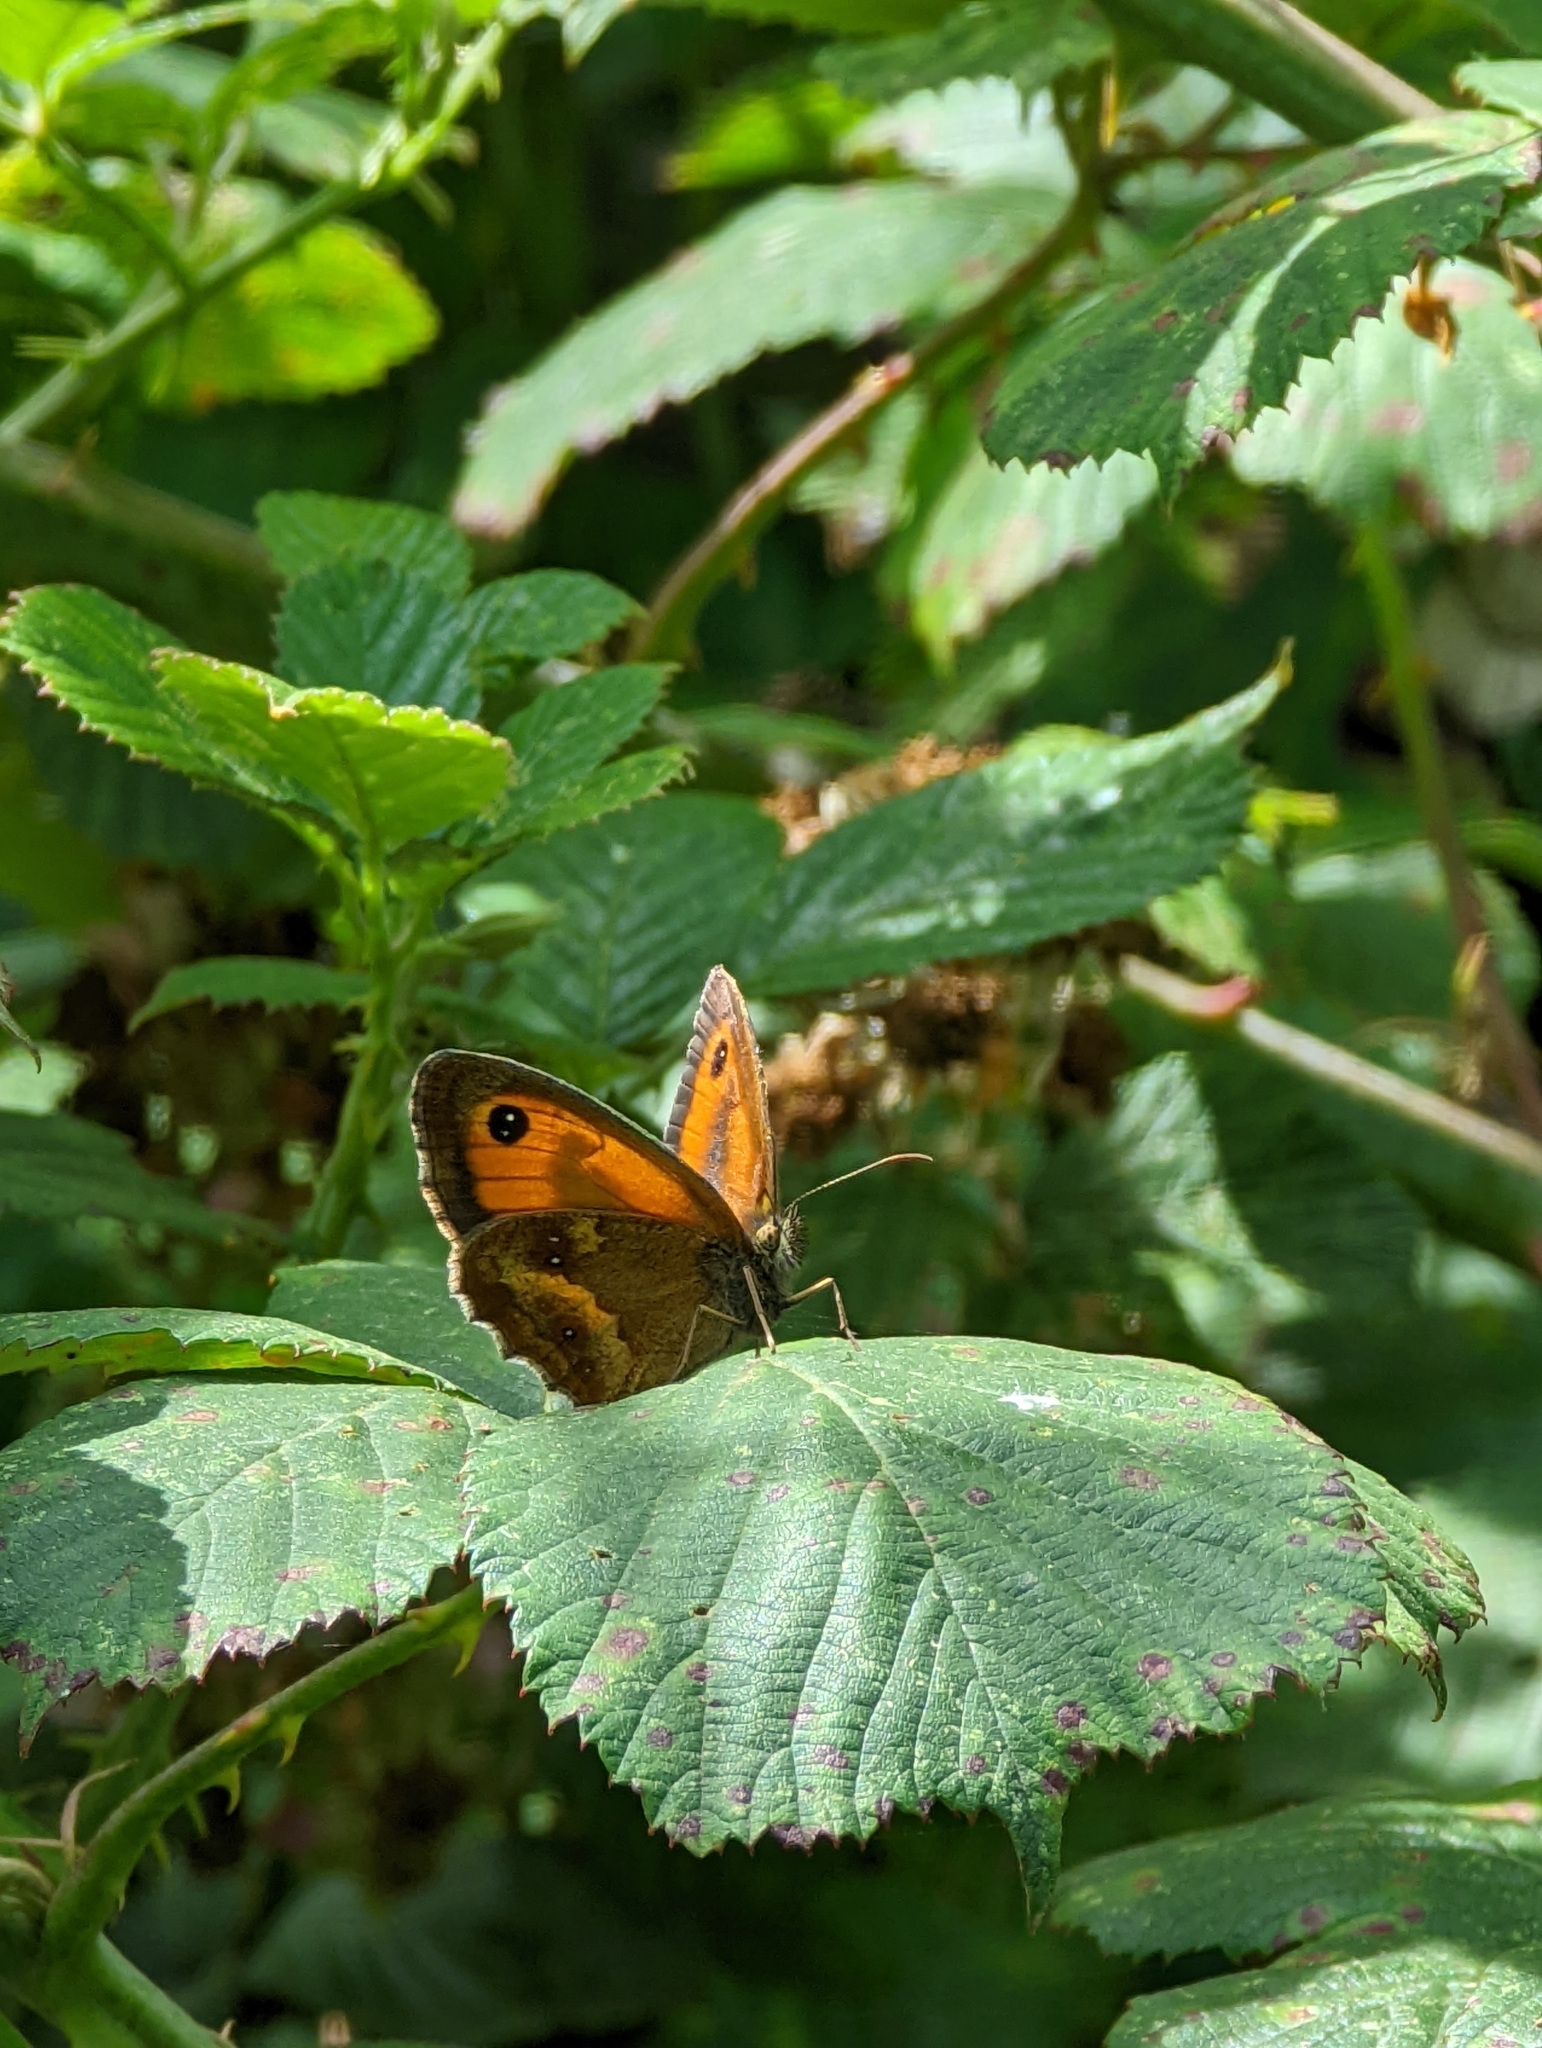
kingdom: Animalia
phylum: Arthropoda
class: Insecta
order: Lepidoptera
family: Nymphalidae
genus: Pyronia
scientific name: Pyronia tithonus
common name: Gatekeeper
